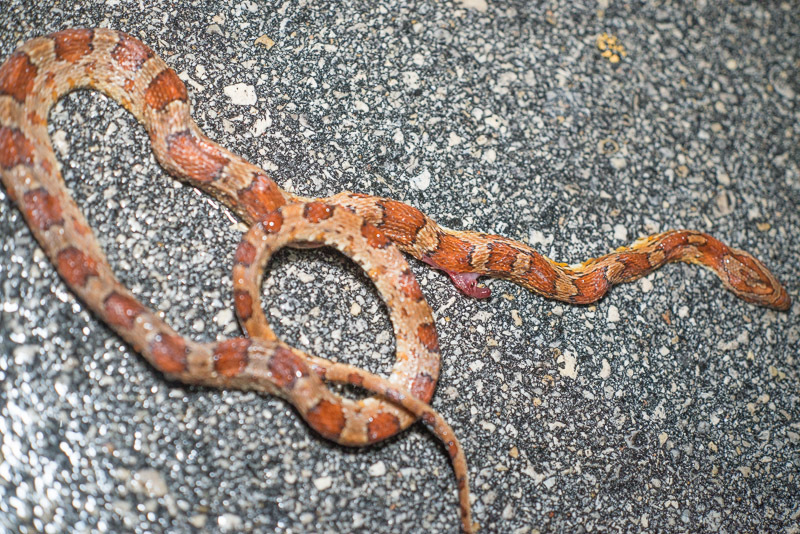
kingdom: Animalia
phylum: Chordata
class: Squamata
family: Colubridae
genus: Pantherophis
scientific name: Pantherophis guttatus
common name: Red cornsnake
